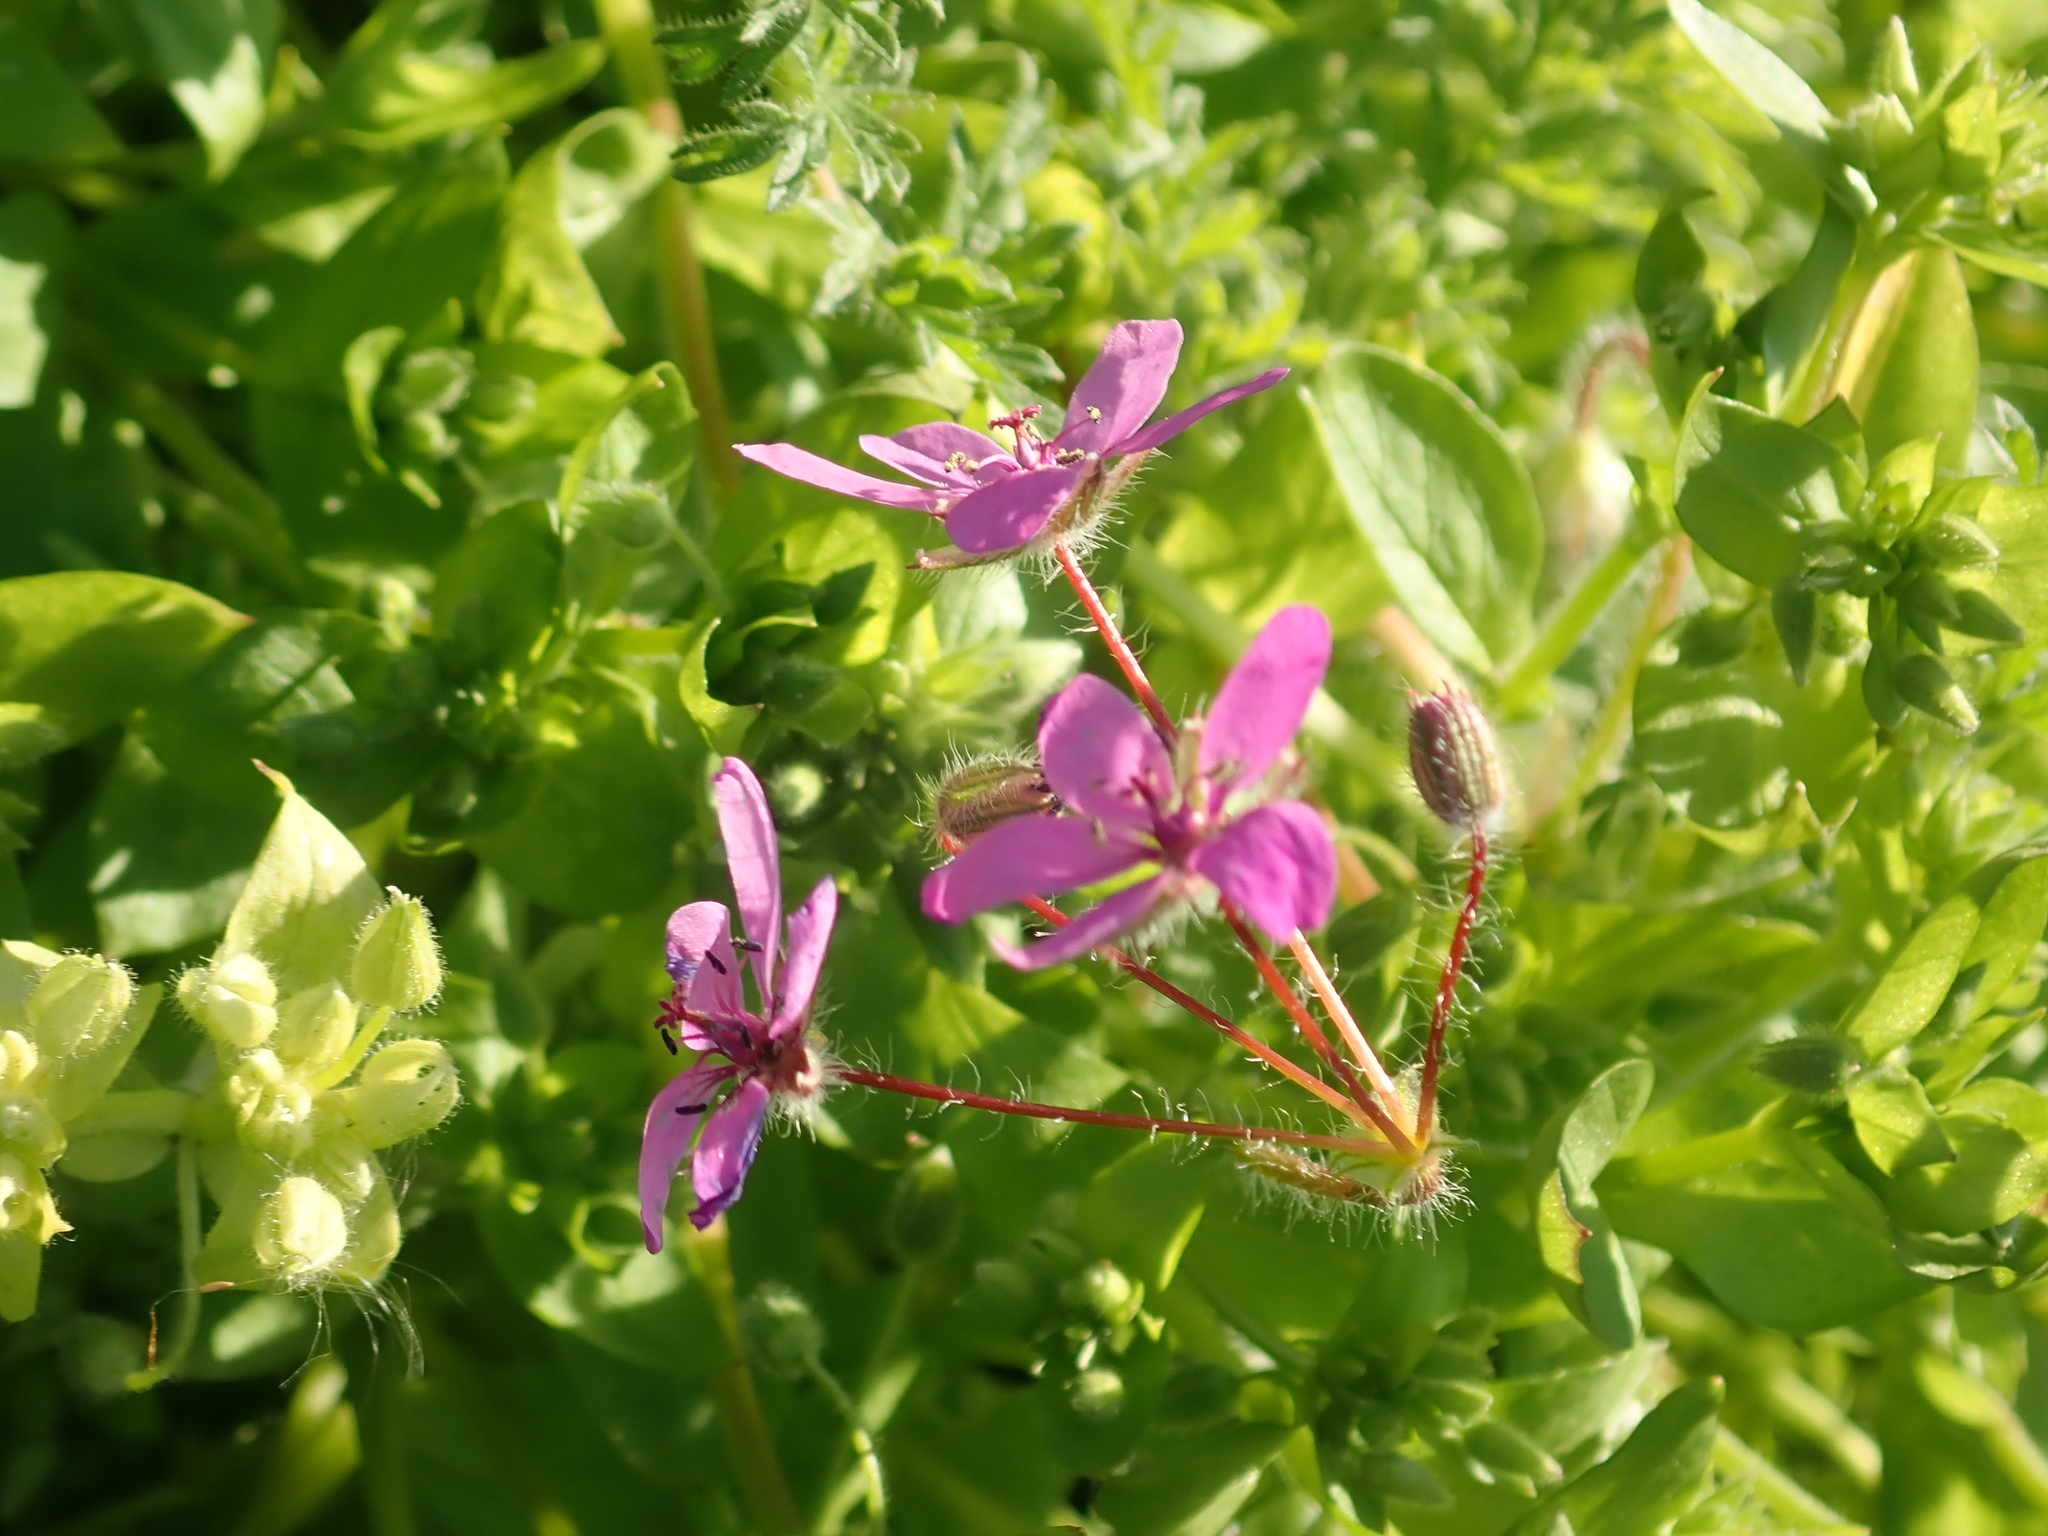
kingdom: Plantae
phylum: Tracheophyta
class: Magnoliopsida
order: Geraniales
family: Geraniaceae
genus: Erodium
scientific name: Erodium cicutarium
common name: Common stork's-bill
